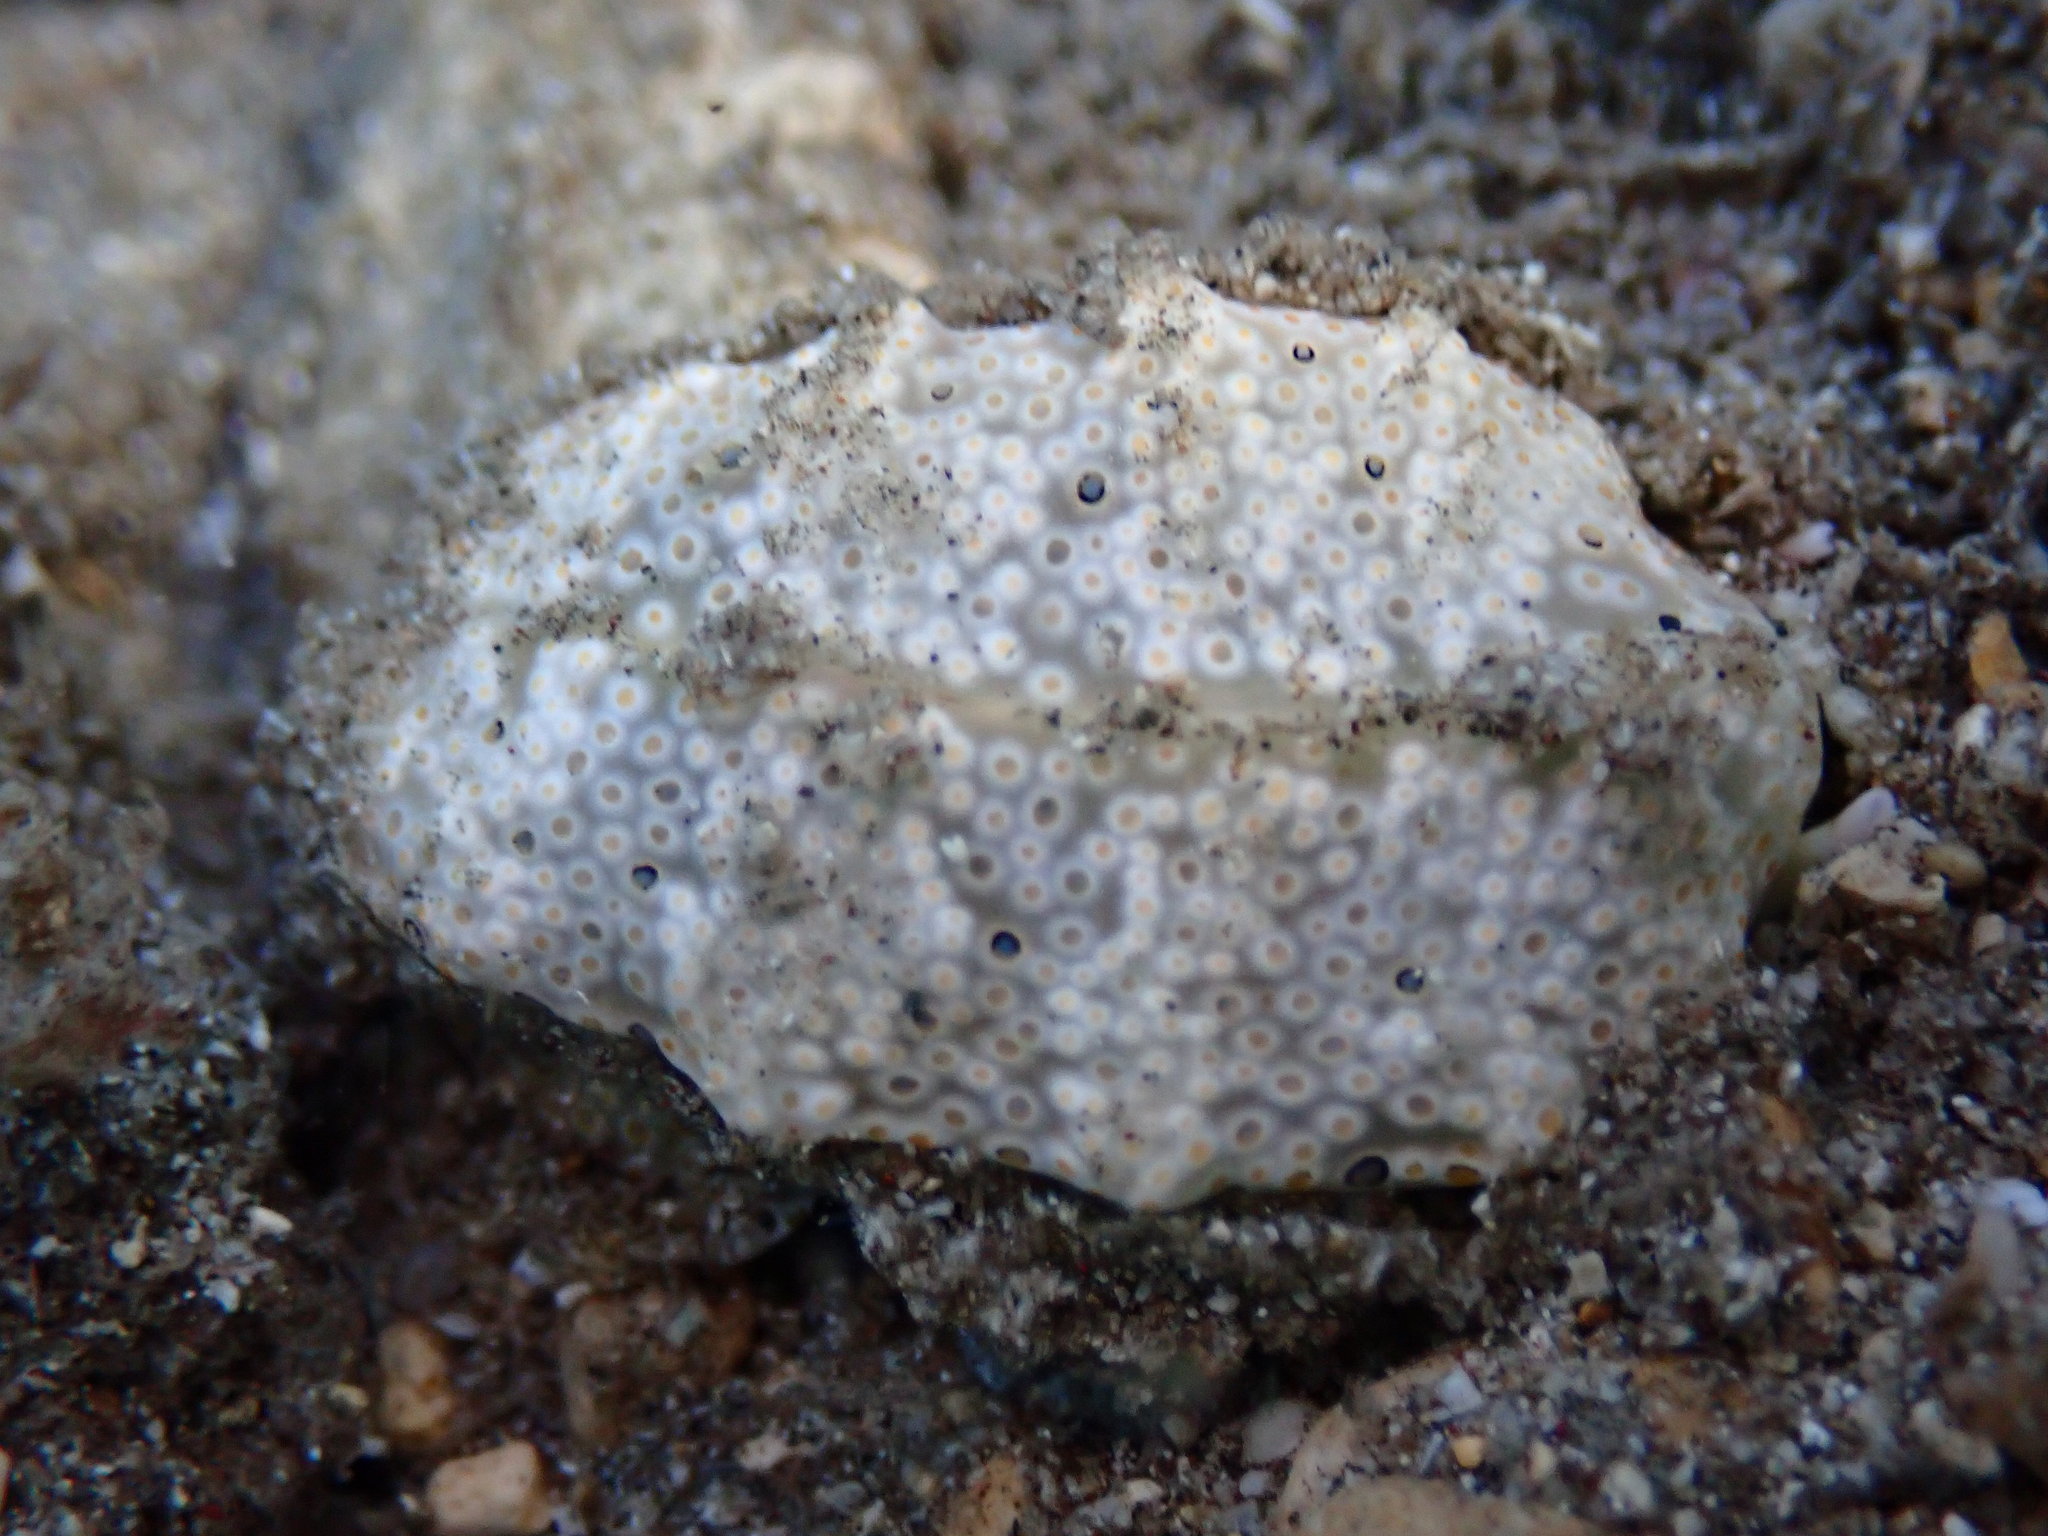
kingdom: Animalia
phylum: Mollusca
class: Gastropoda
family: Plakobranchidae
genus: Plakobranchus
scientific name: Plakobranchus ocellatus
